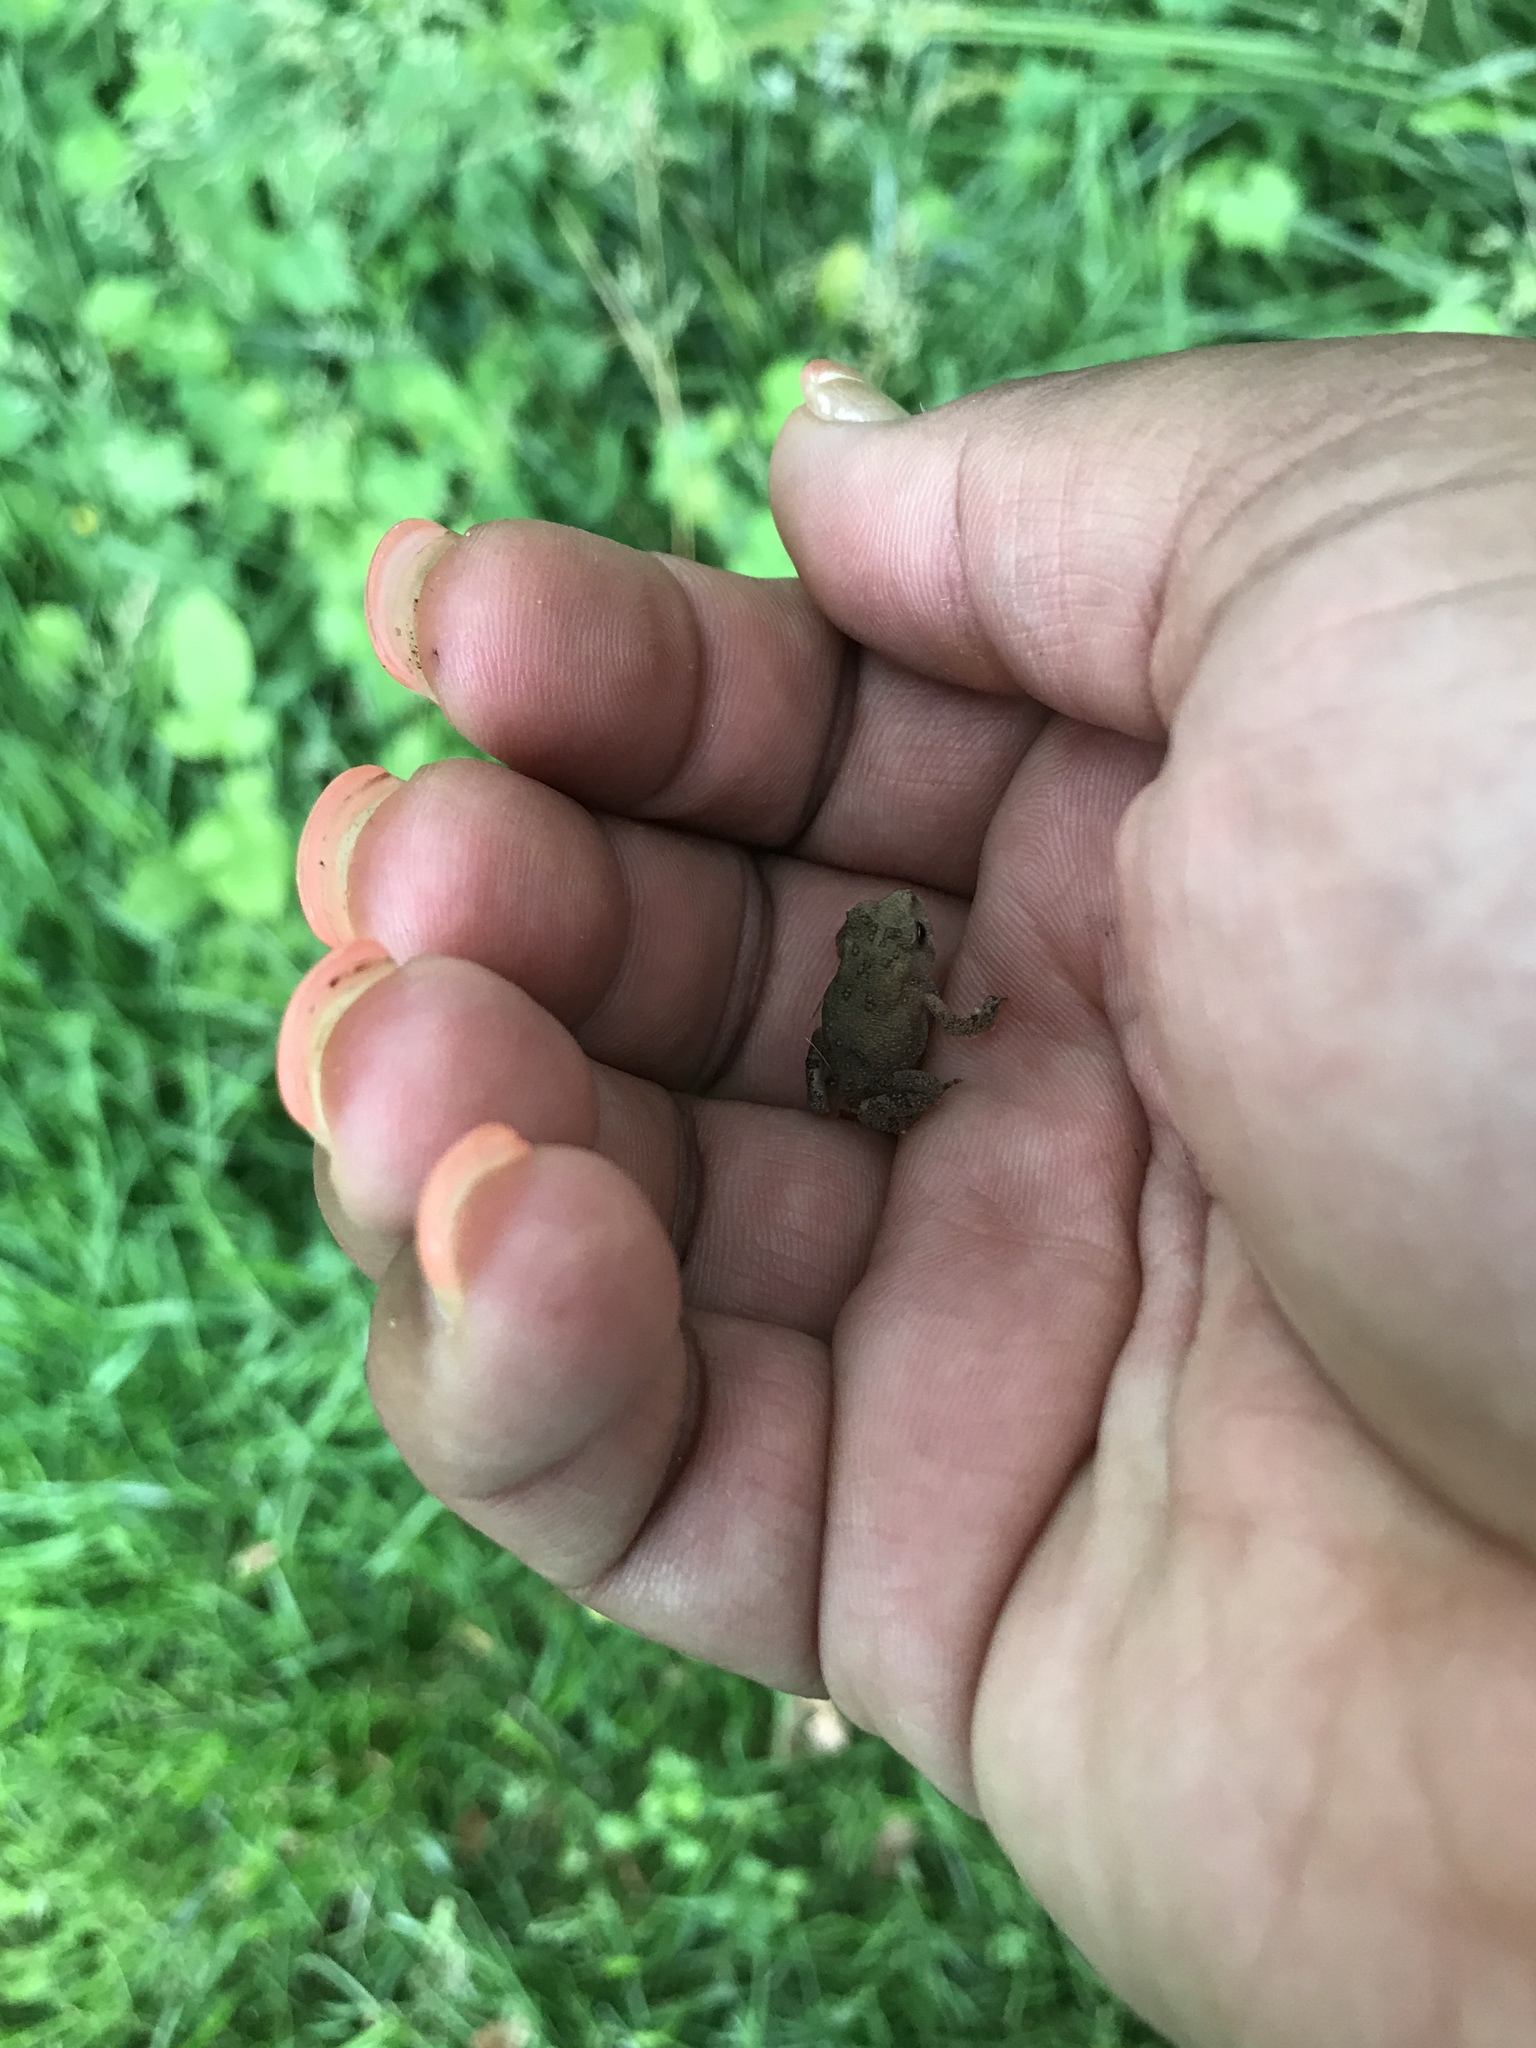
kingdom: Animalia
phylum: Chordata
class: Amphibia
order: Anura
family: Bufonidae
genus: Anaxyrus
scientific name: Anaxyrus americanus
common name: American toad
